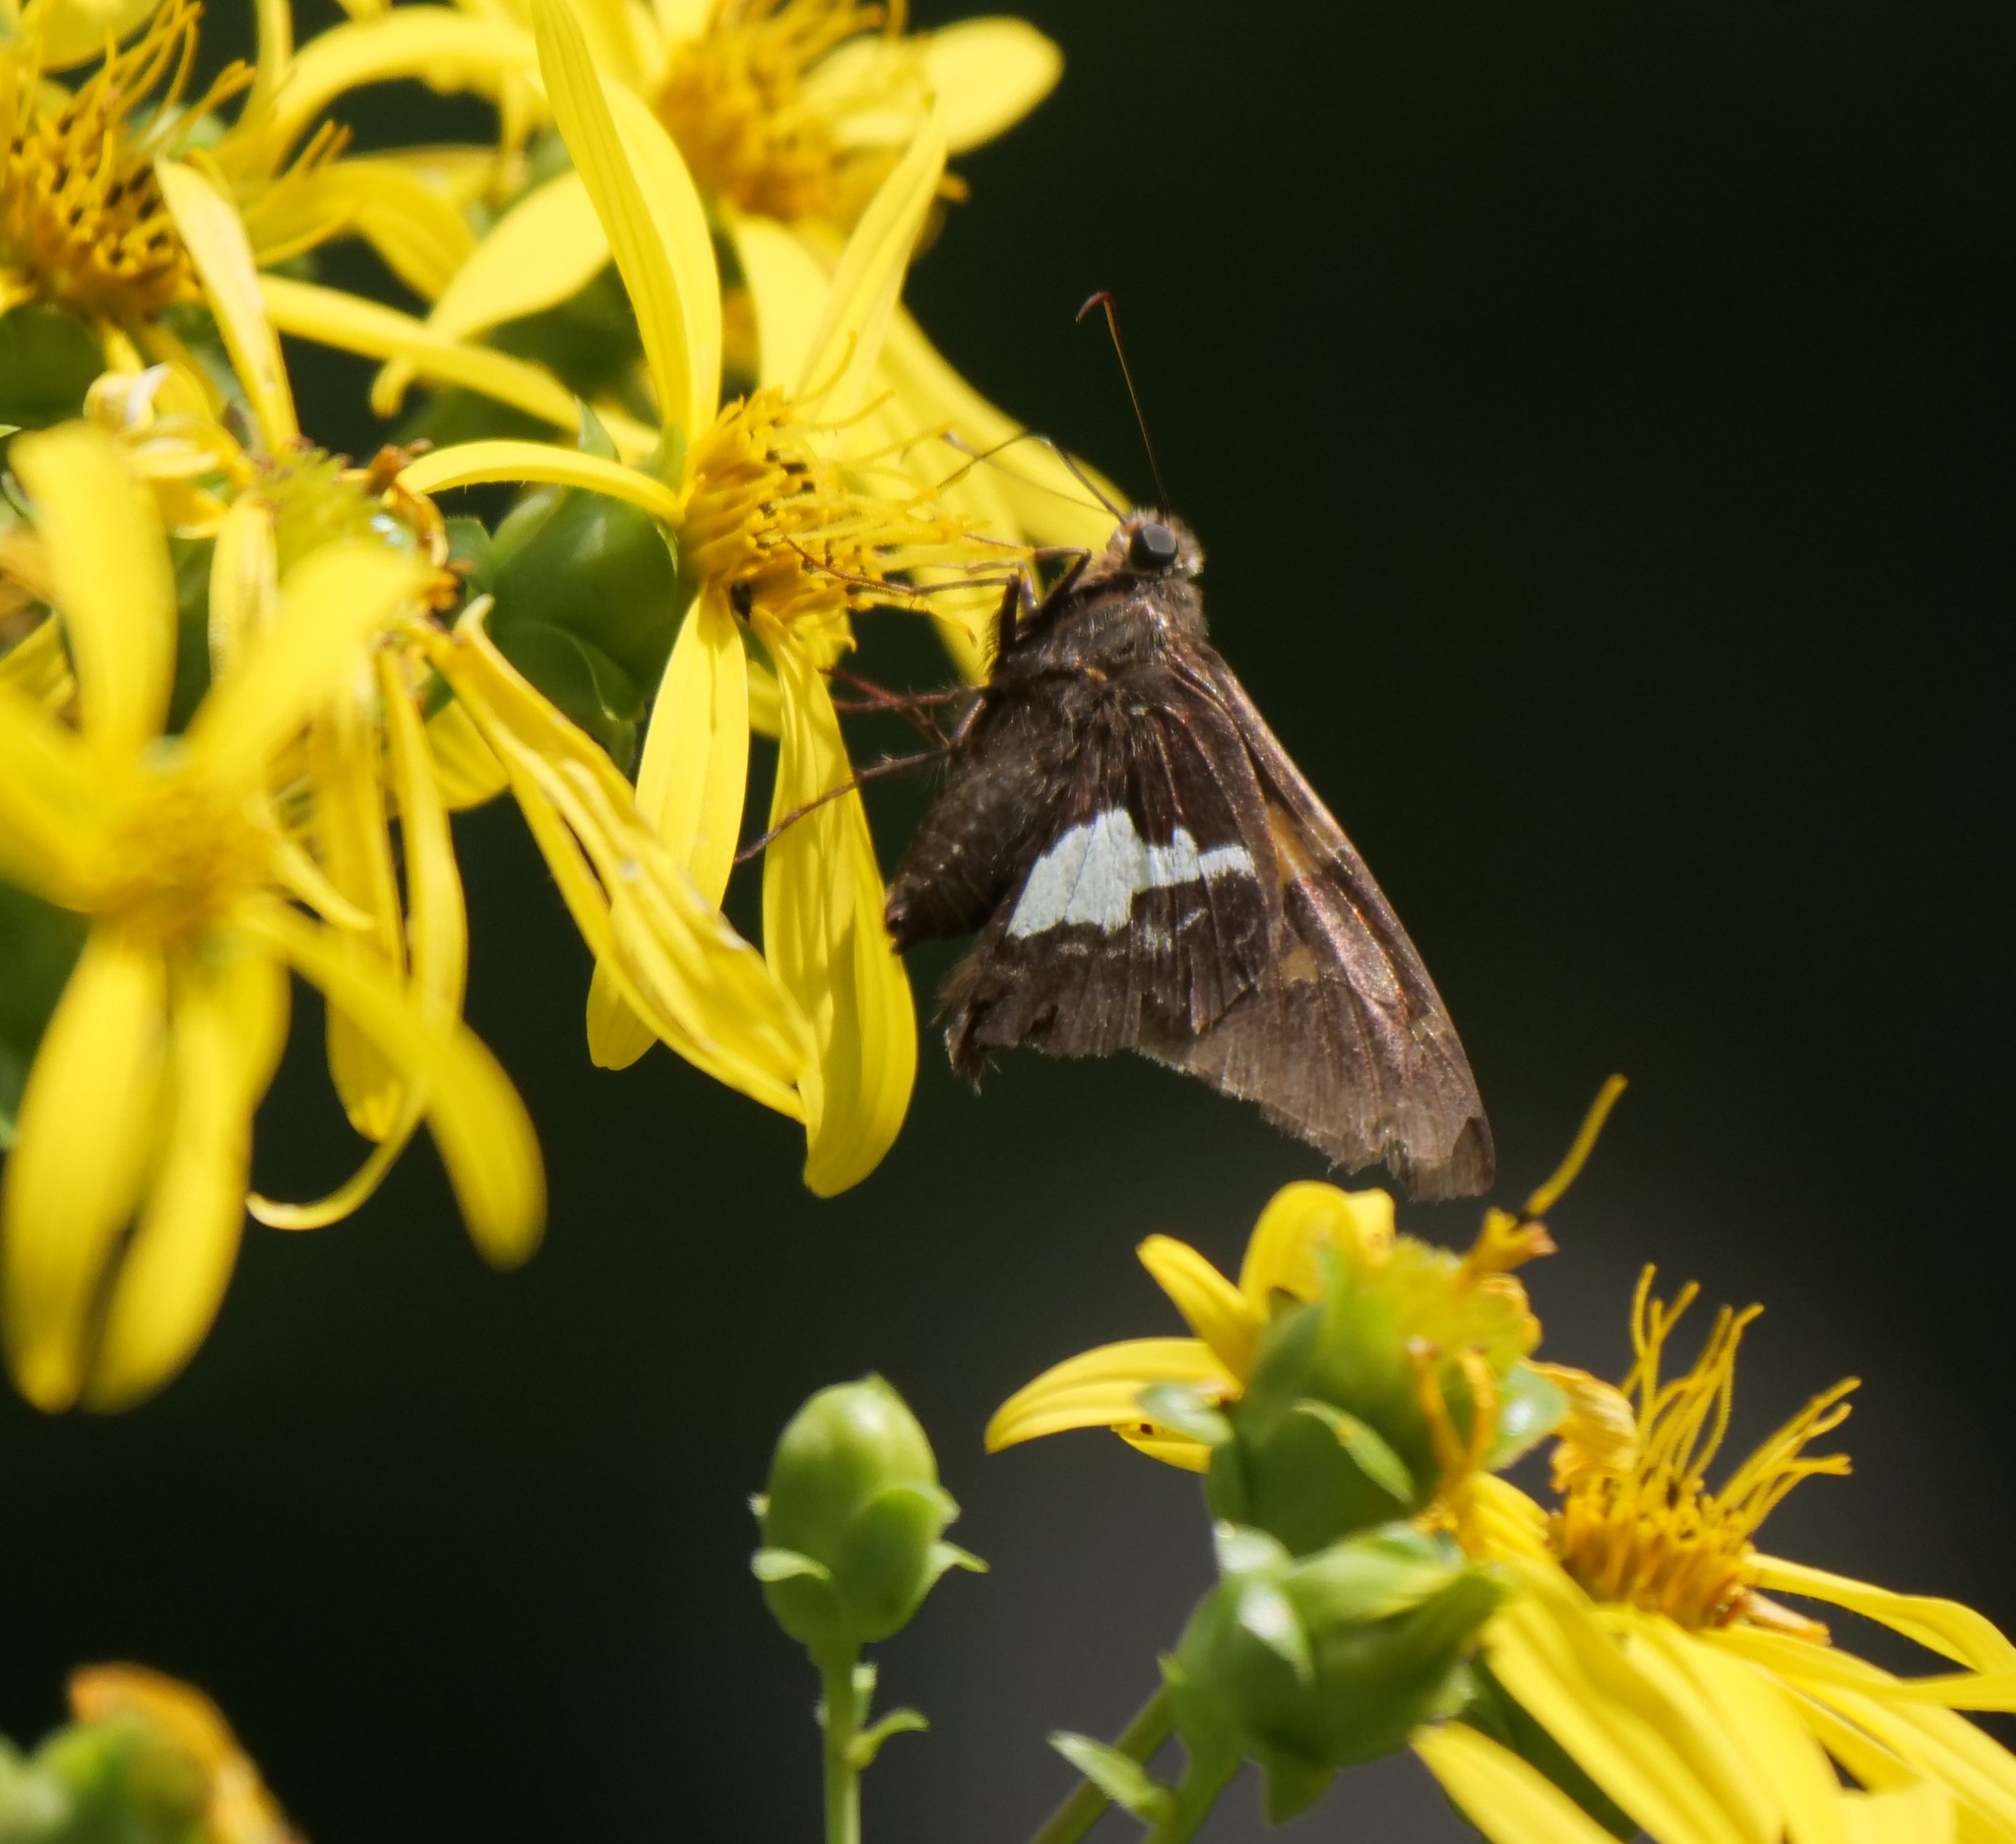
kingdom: Animalia
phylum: Arthropoda
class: Insecta
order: Lepidoptera
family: Hesperiidae
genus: Epargyreus
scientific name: Epargyreus clarus
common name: Silver-spotted skipper
